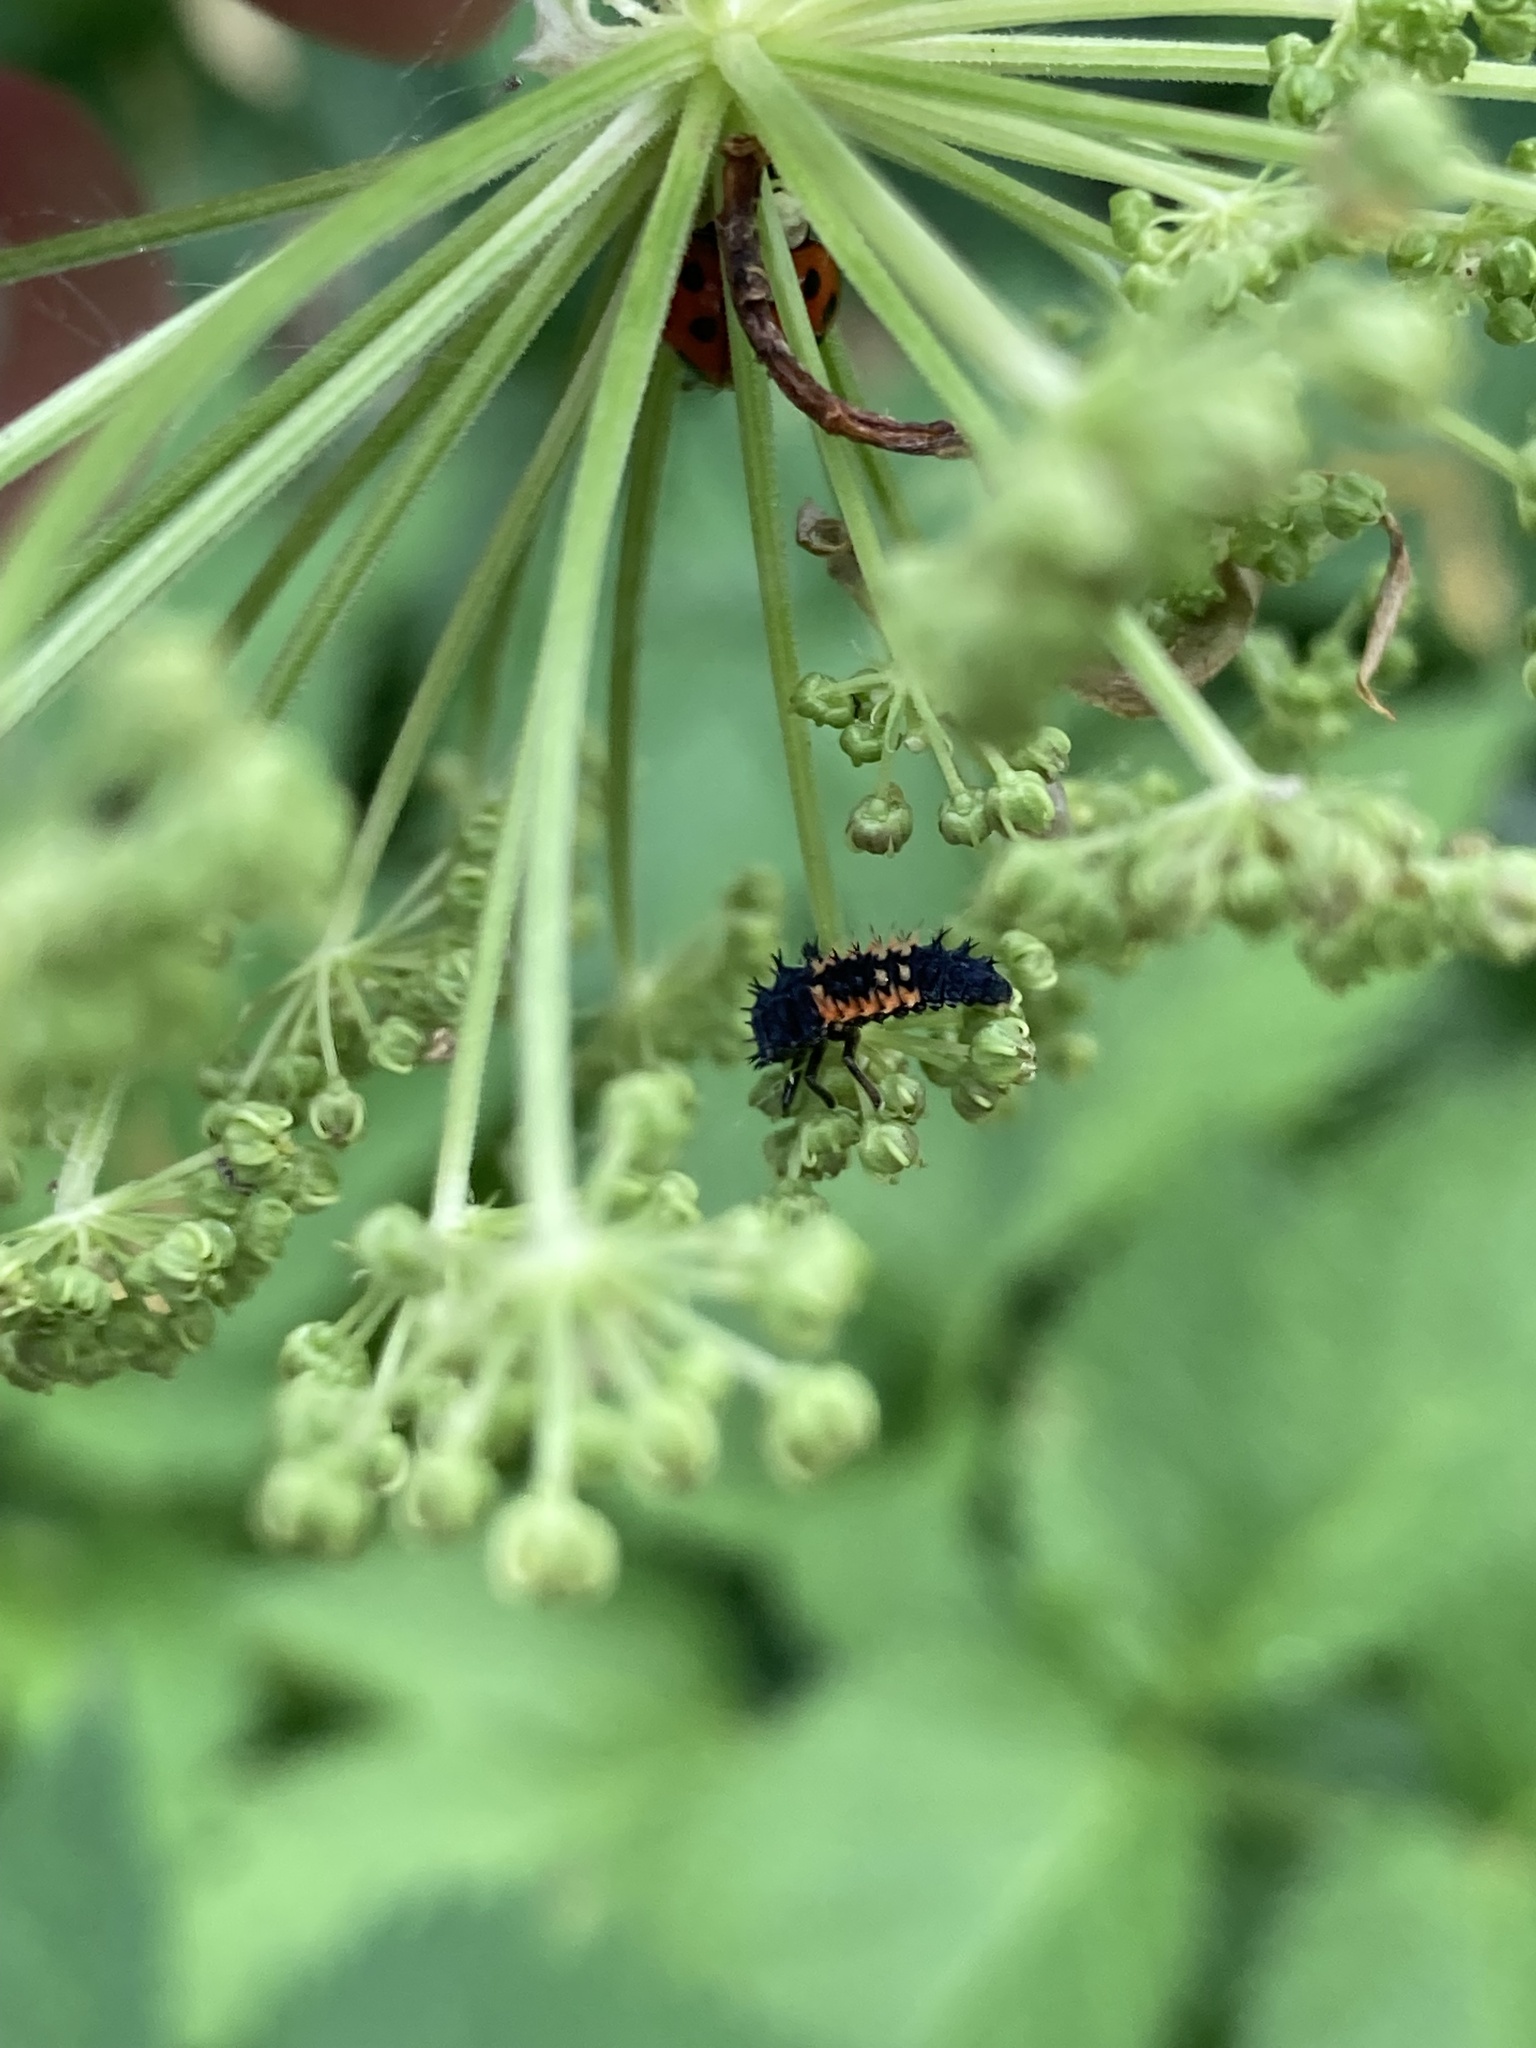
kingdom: Animalia
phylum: Arthropoda
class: Insecta
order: Coleoptera
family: Coccinellidae
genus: Harmonia
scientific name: Harmonia axyridis
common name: Harlequin ladybird
